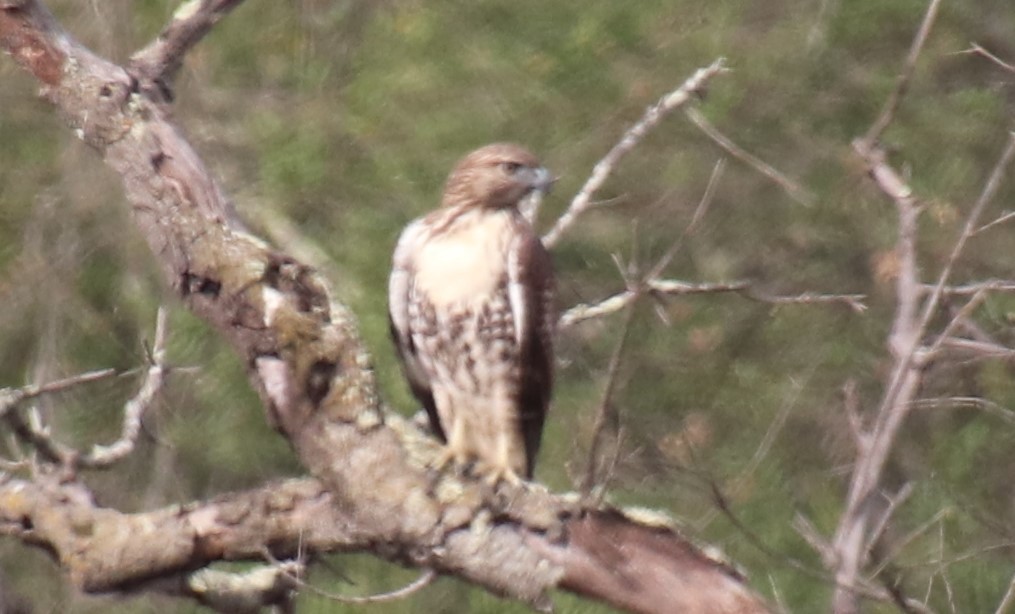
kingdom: Animalia
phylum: Chordata
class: Aves
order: Accipitriformes
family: Accipitridae
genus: Buteo
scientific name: Buteo jamaicensis
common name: Red-tailed hawk
